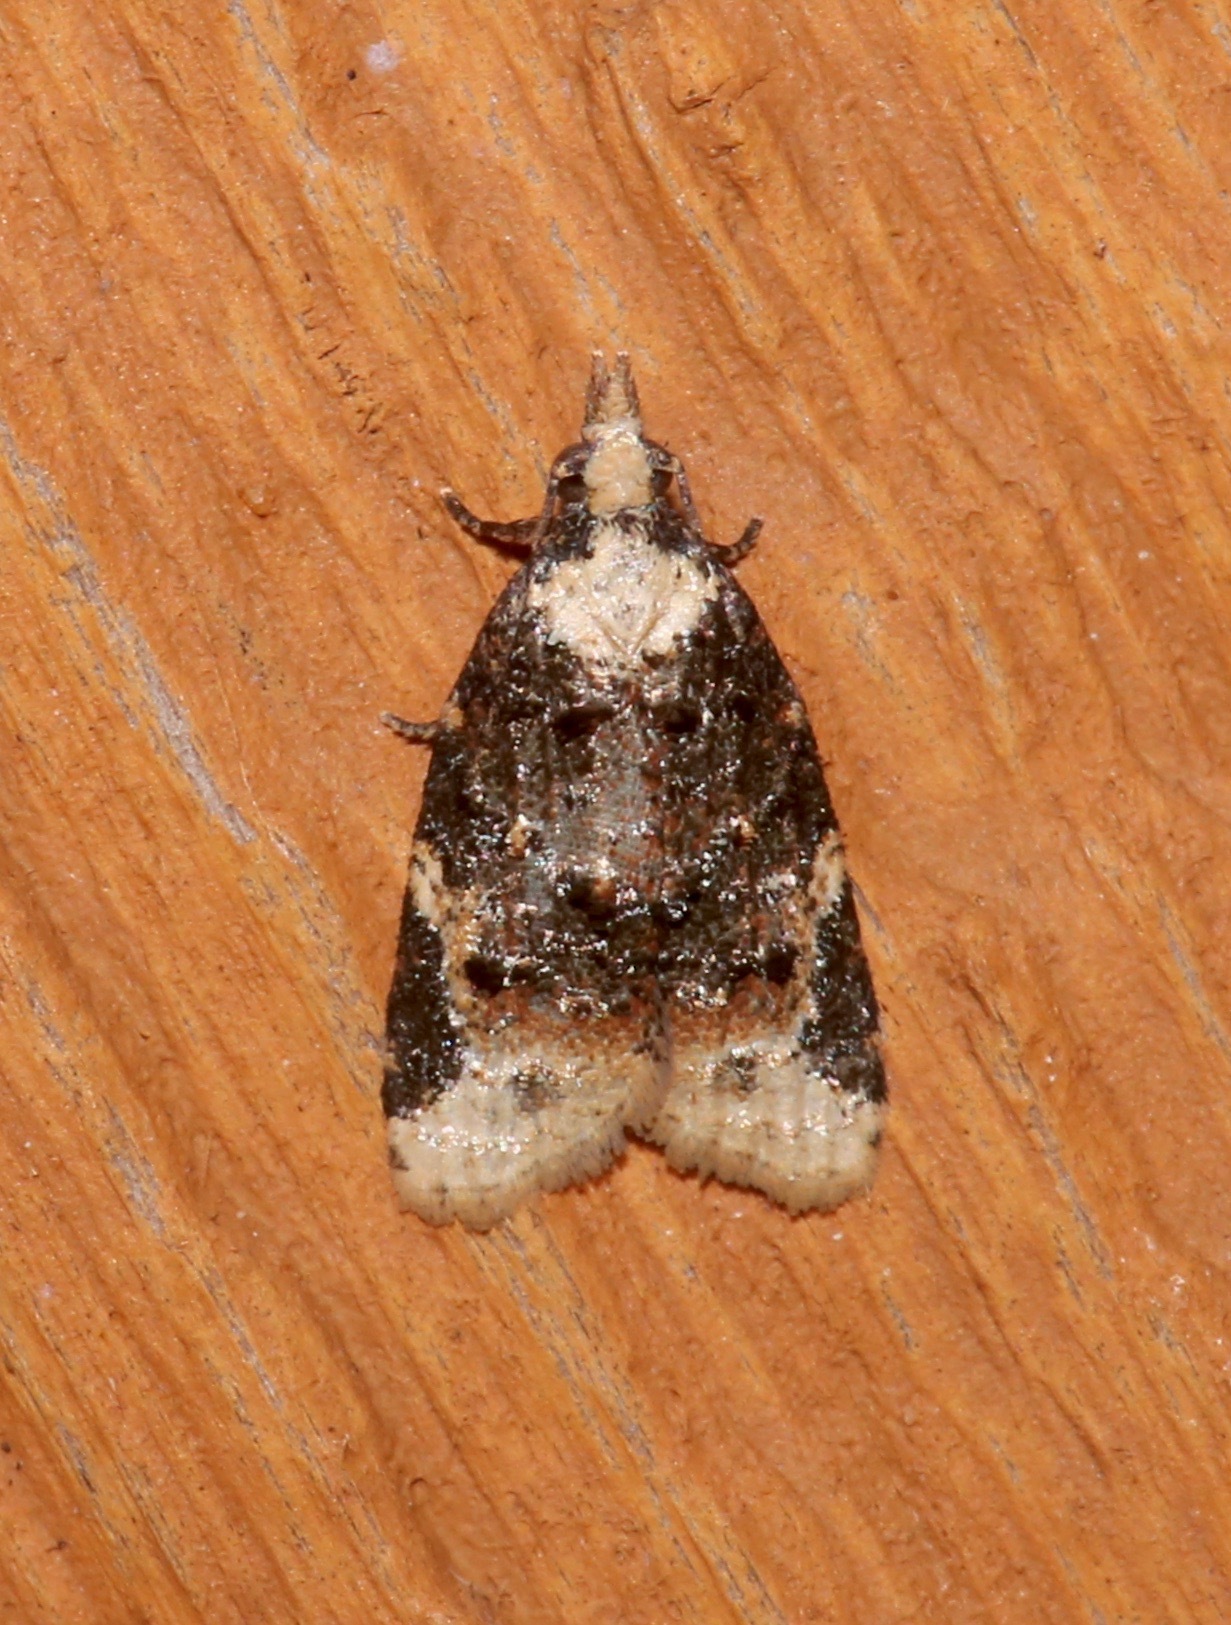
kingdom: Animalia
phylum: Arthropoda
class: Insecta
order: Lepidoptera
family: Tortricidae
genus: Platynota
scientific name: Platynota exasperatana
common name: Exasperating platynota moth
